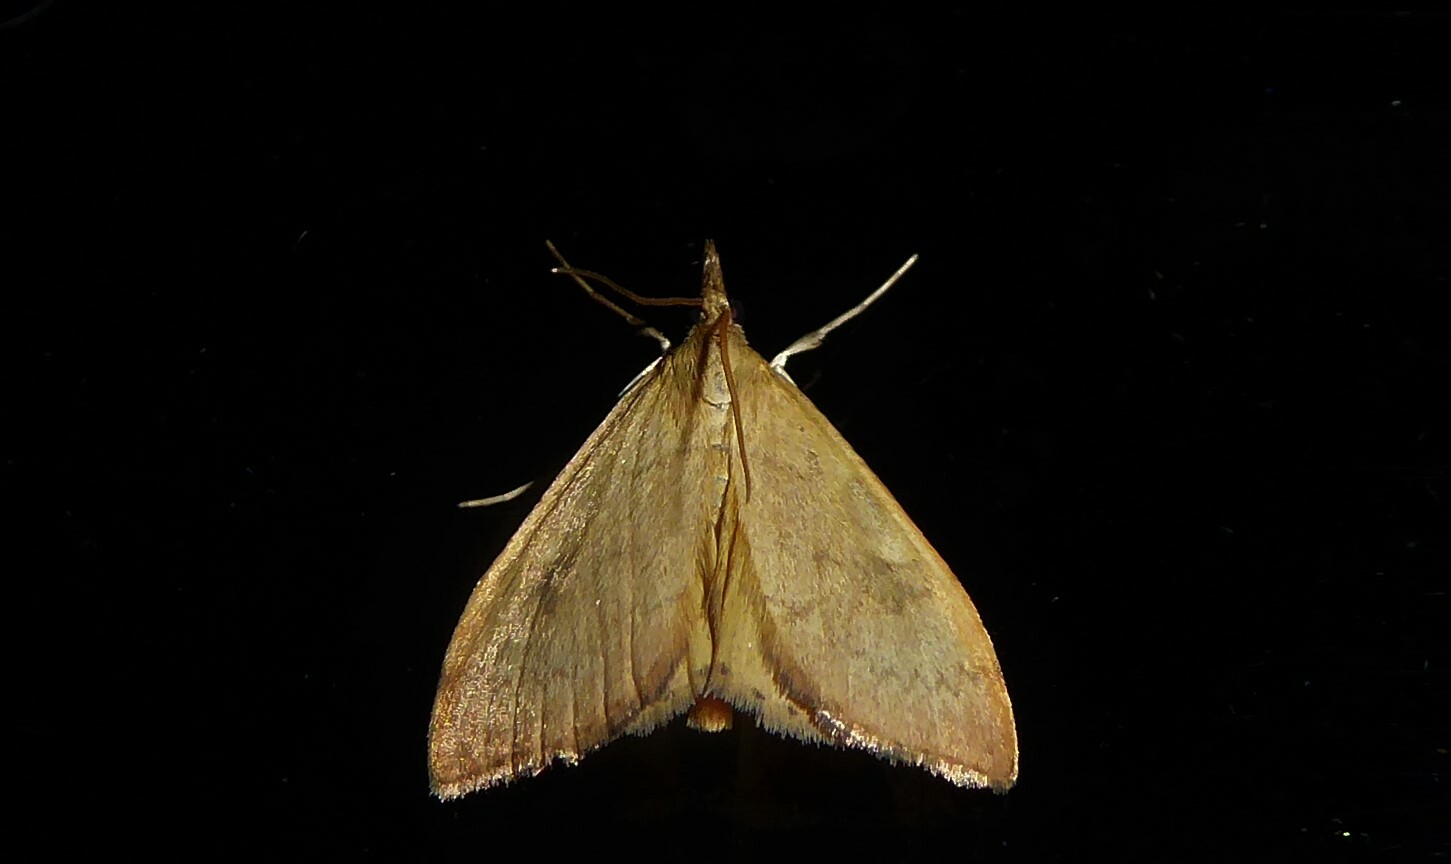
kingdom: Animalia
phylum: Arthropoda
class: Insecta
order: Lepidoptera
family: Crambidae
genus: Udea
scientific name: Udea Mnesictena flavidalis
